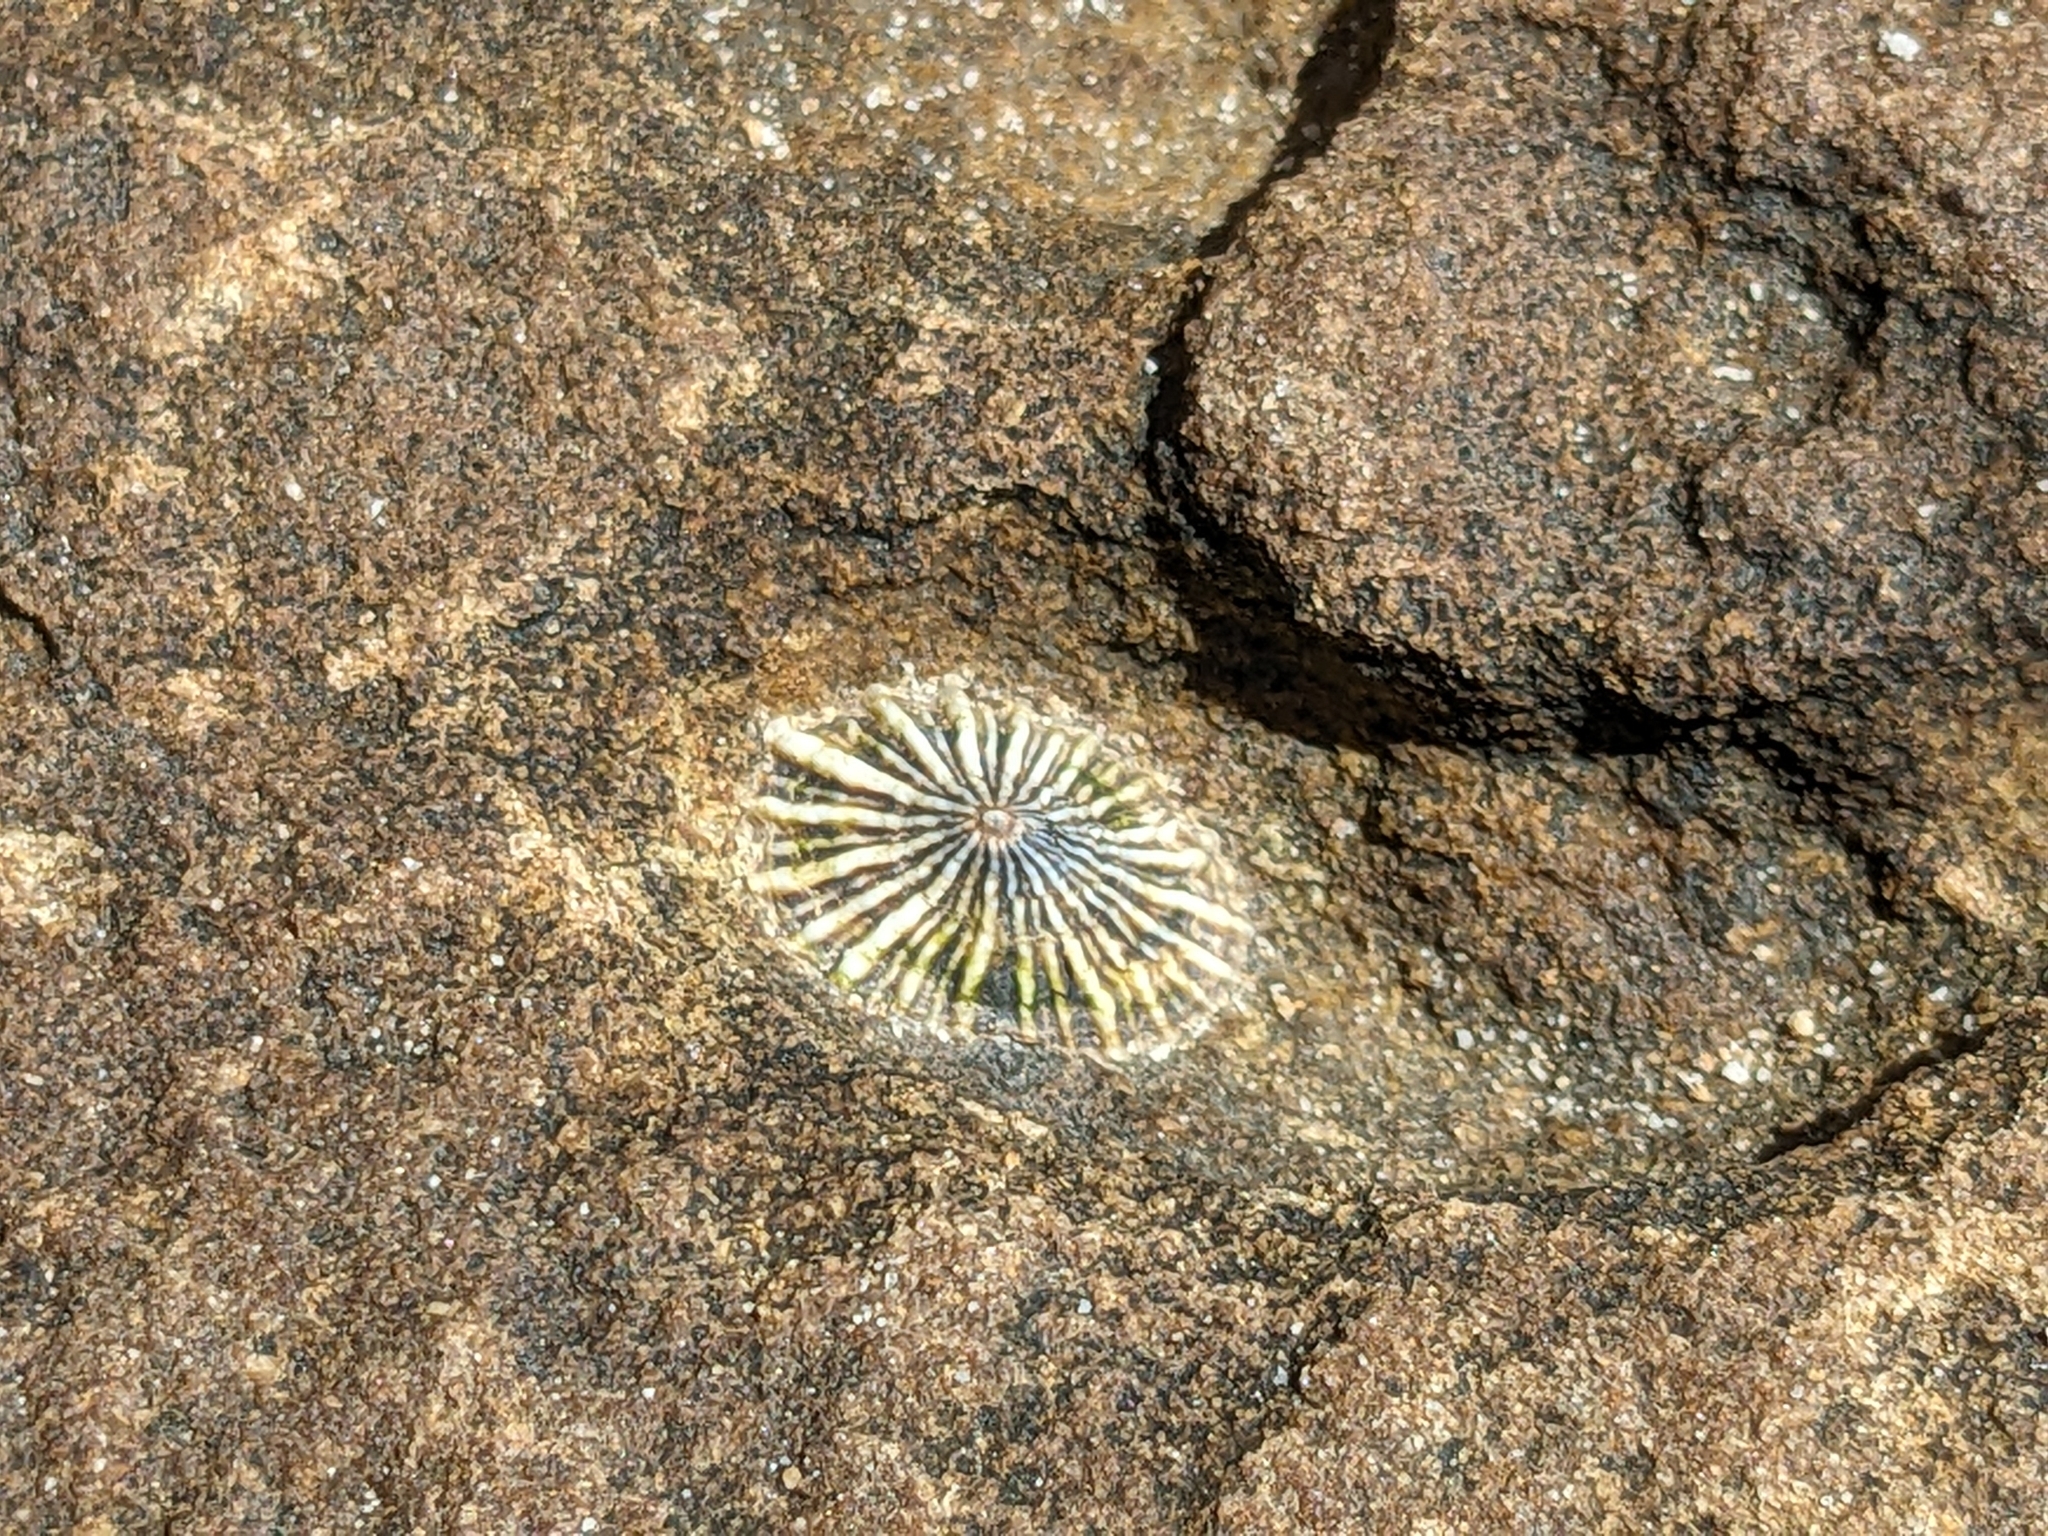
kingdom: Animalia
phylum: Mollusca
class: Gastropoda
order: Siphonariida
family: Siphonariidae
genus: Siphonaria
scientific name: Siphonaria diemenensis
